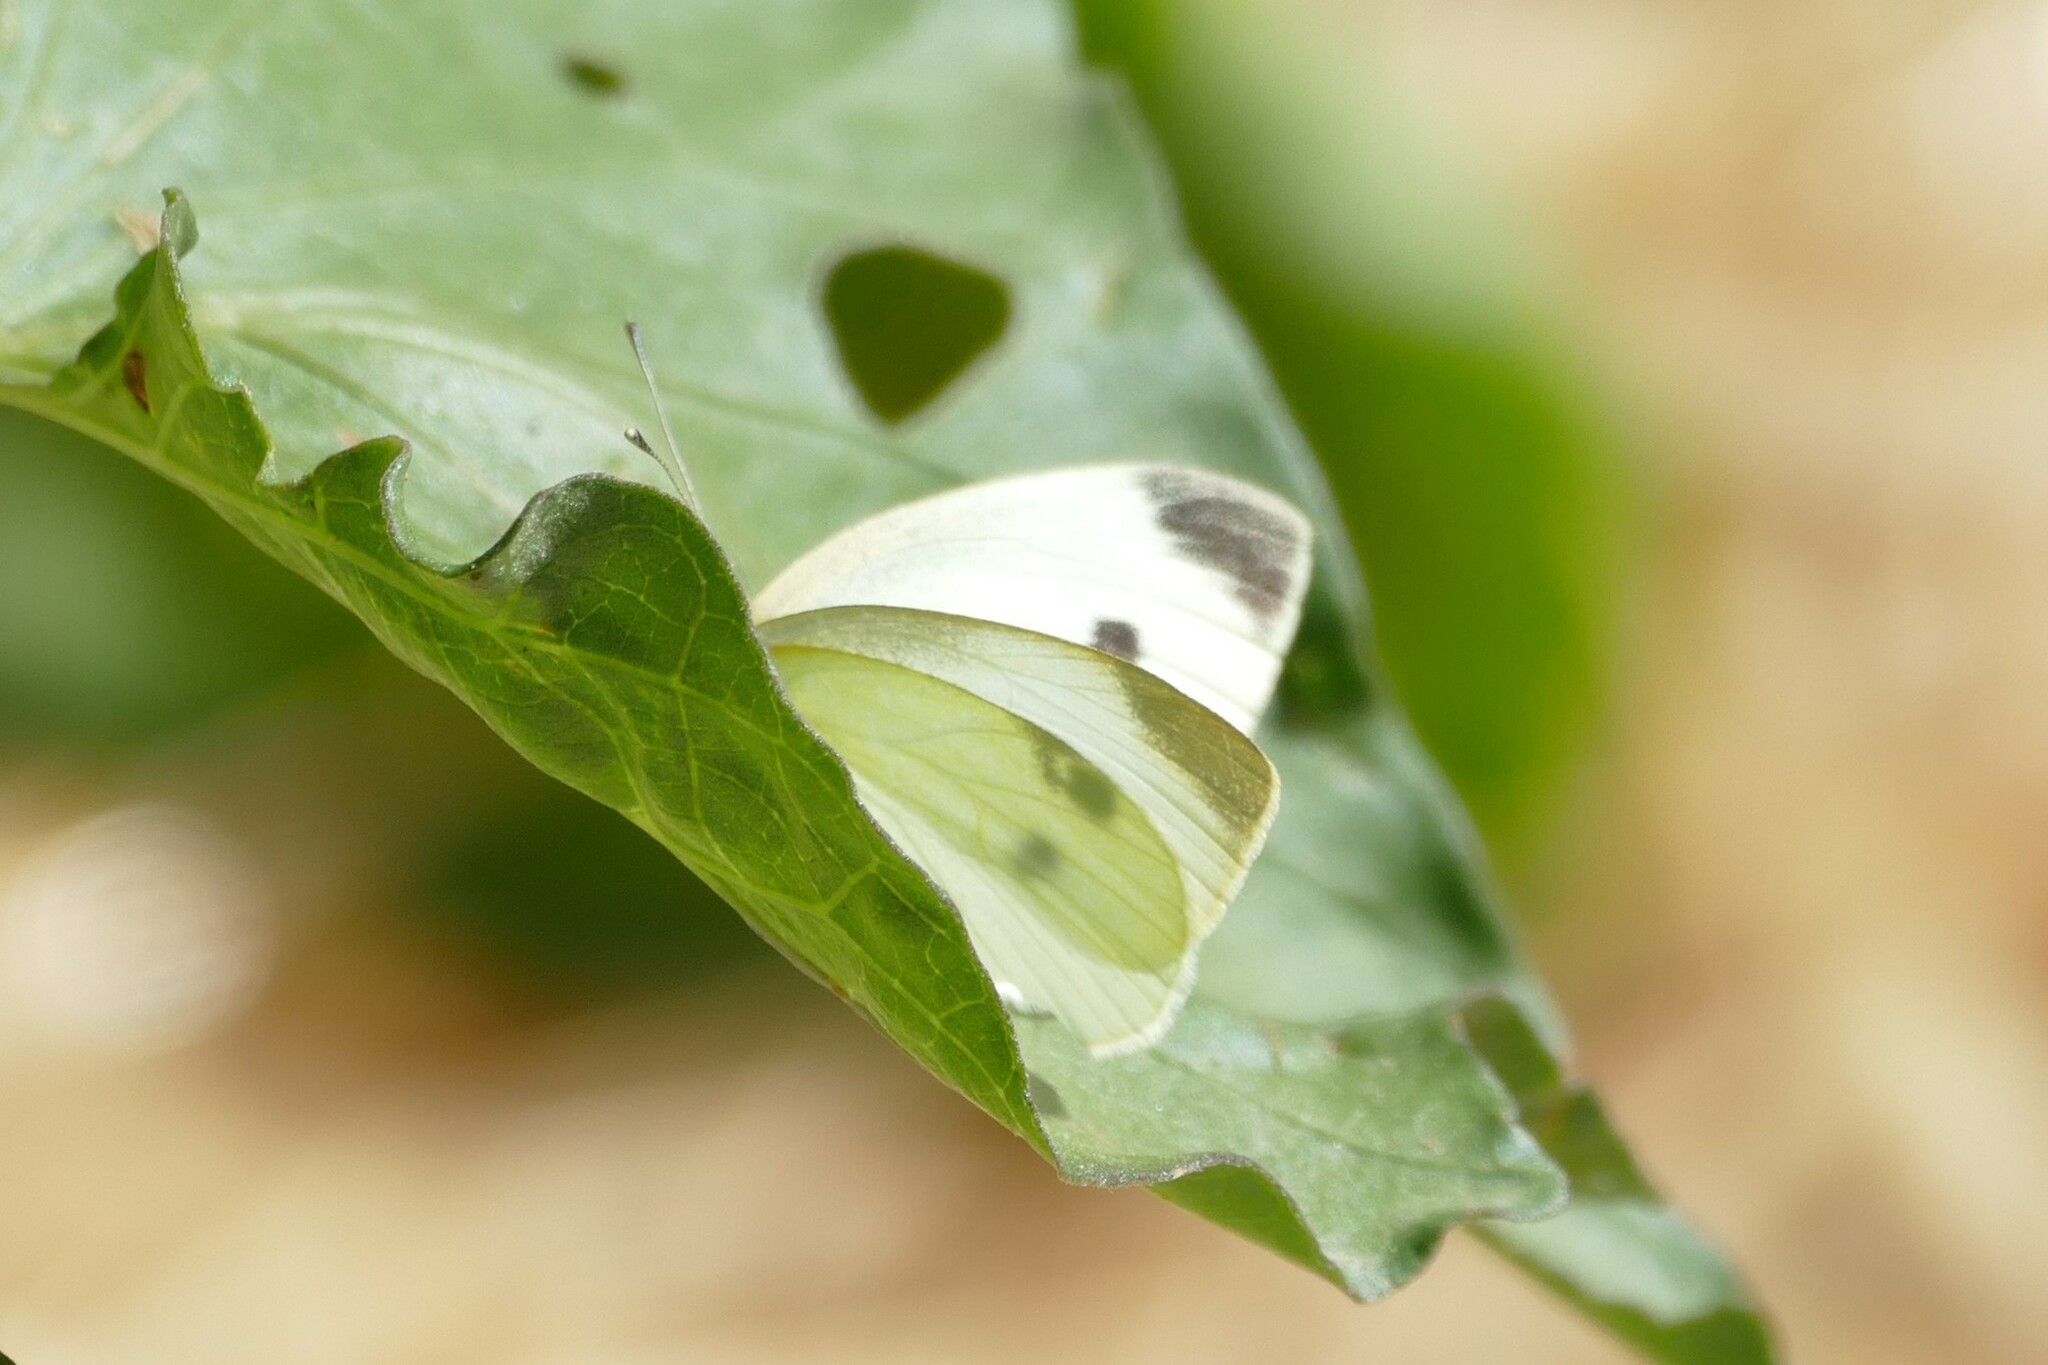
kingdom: Animalia
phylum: Arthropoda
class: Insecta
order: Lepidoptera
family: Pieridae
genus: Pieris
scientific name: Pieris rapae
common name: Small white
